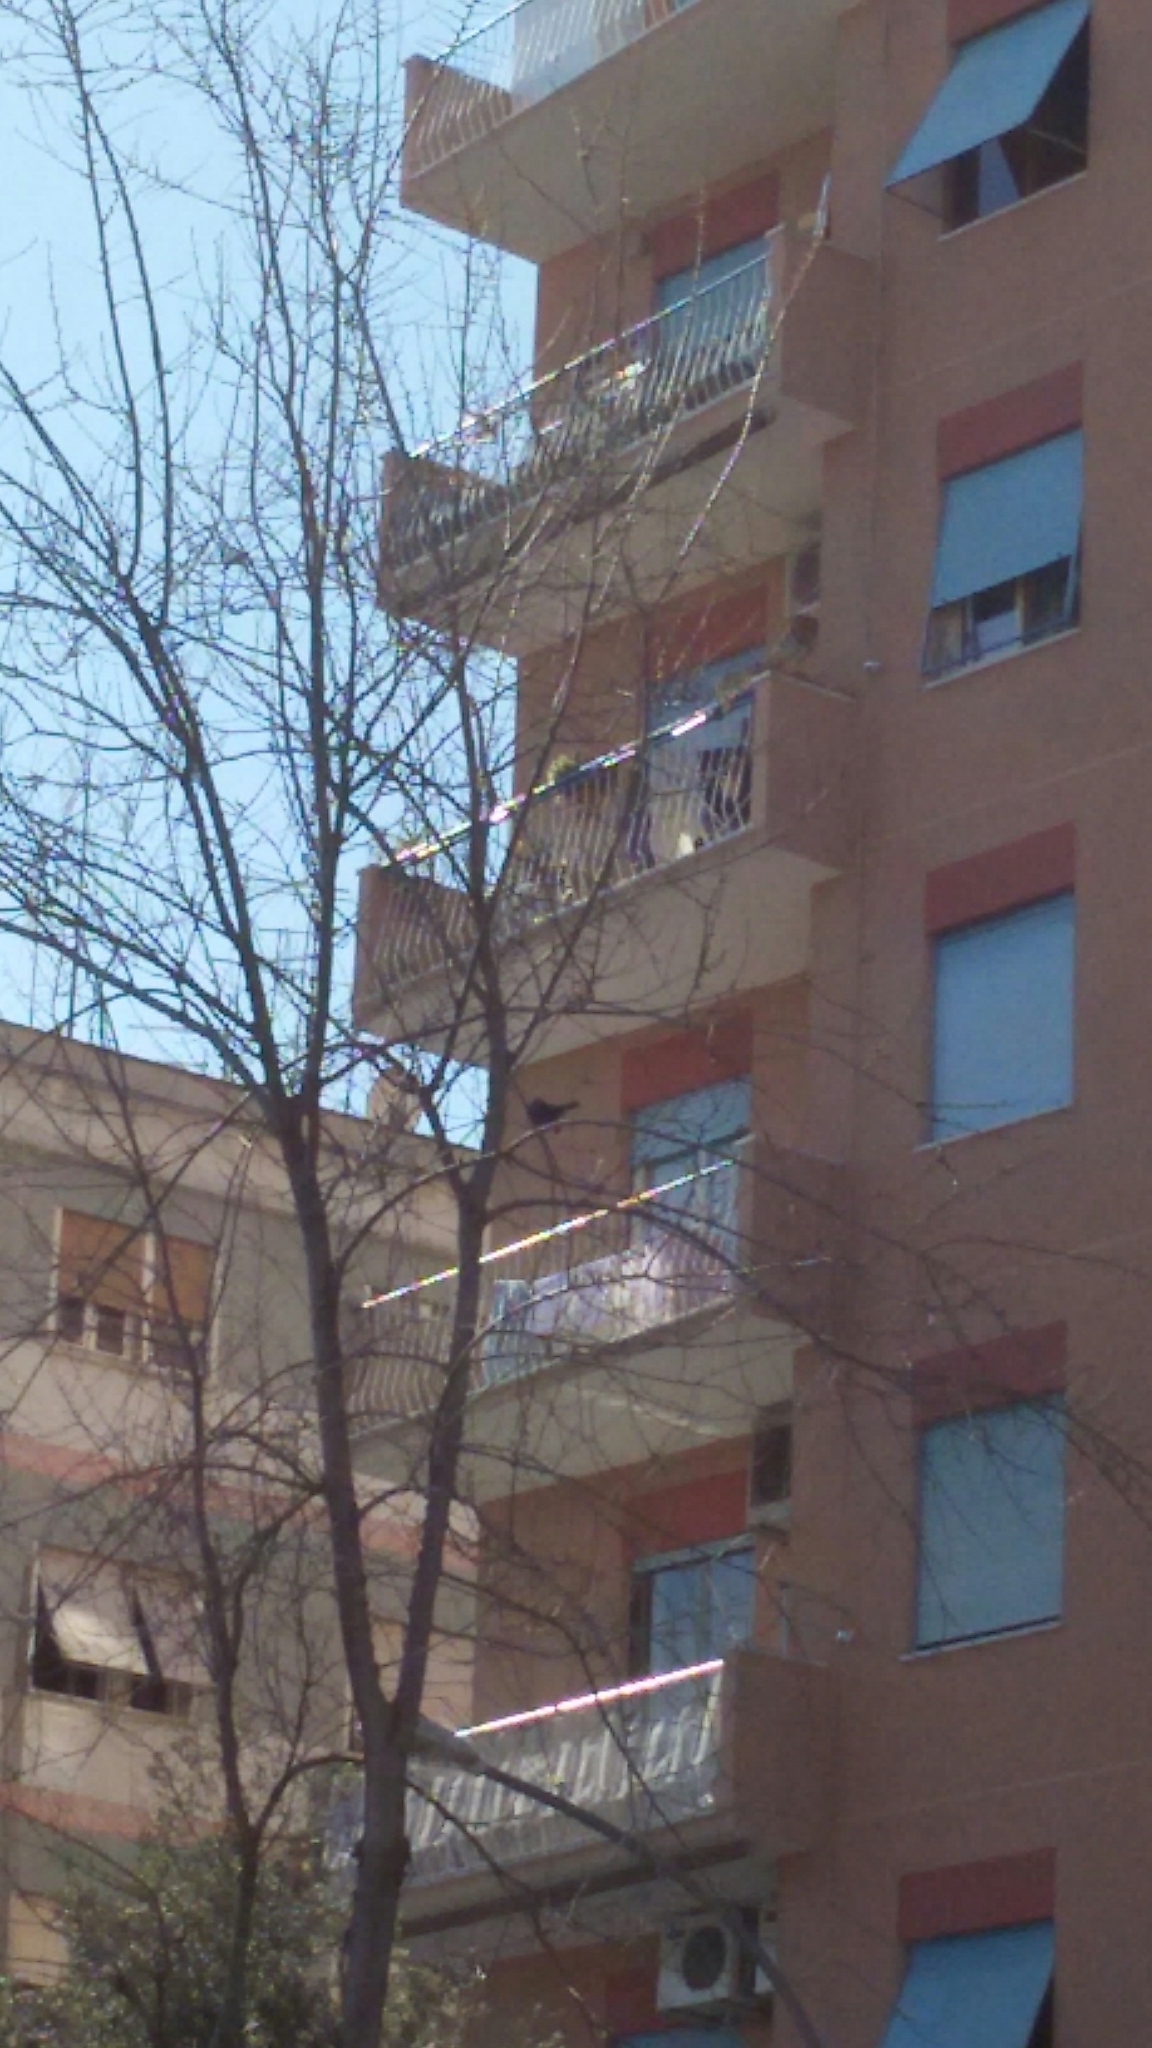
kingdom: Animalia
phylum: Chordata
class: Aves
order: Passeriformes
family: Turdidae
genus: Turdus
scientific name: Turdus merula
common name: Common blackbird
